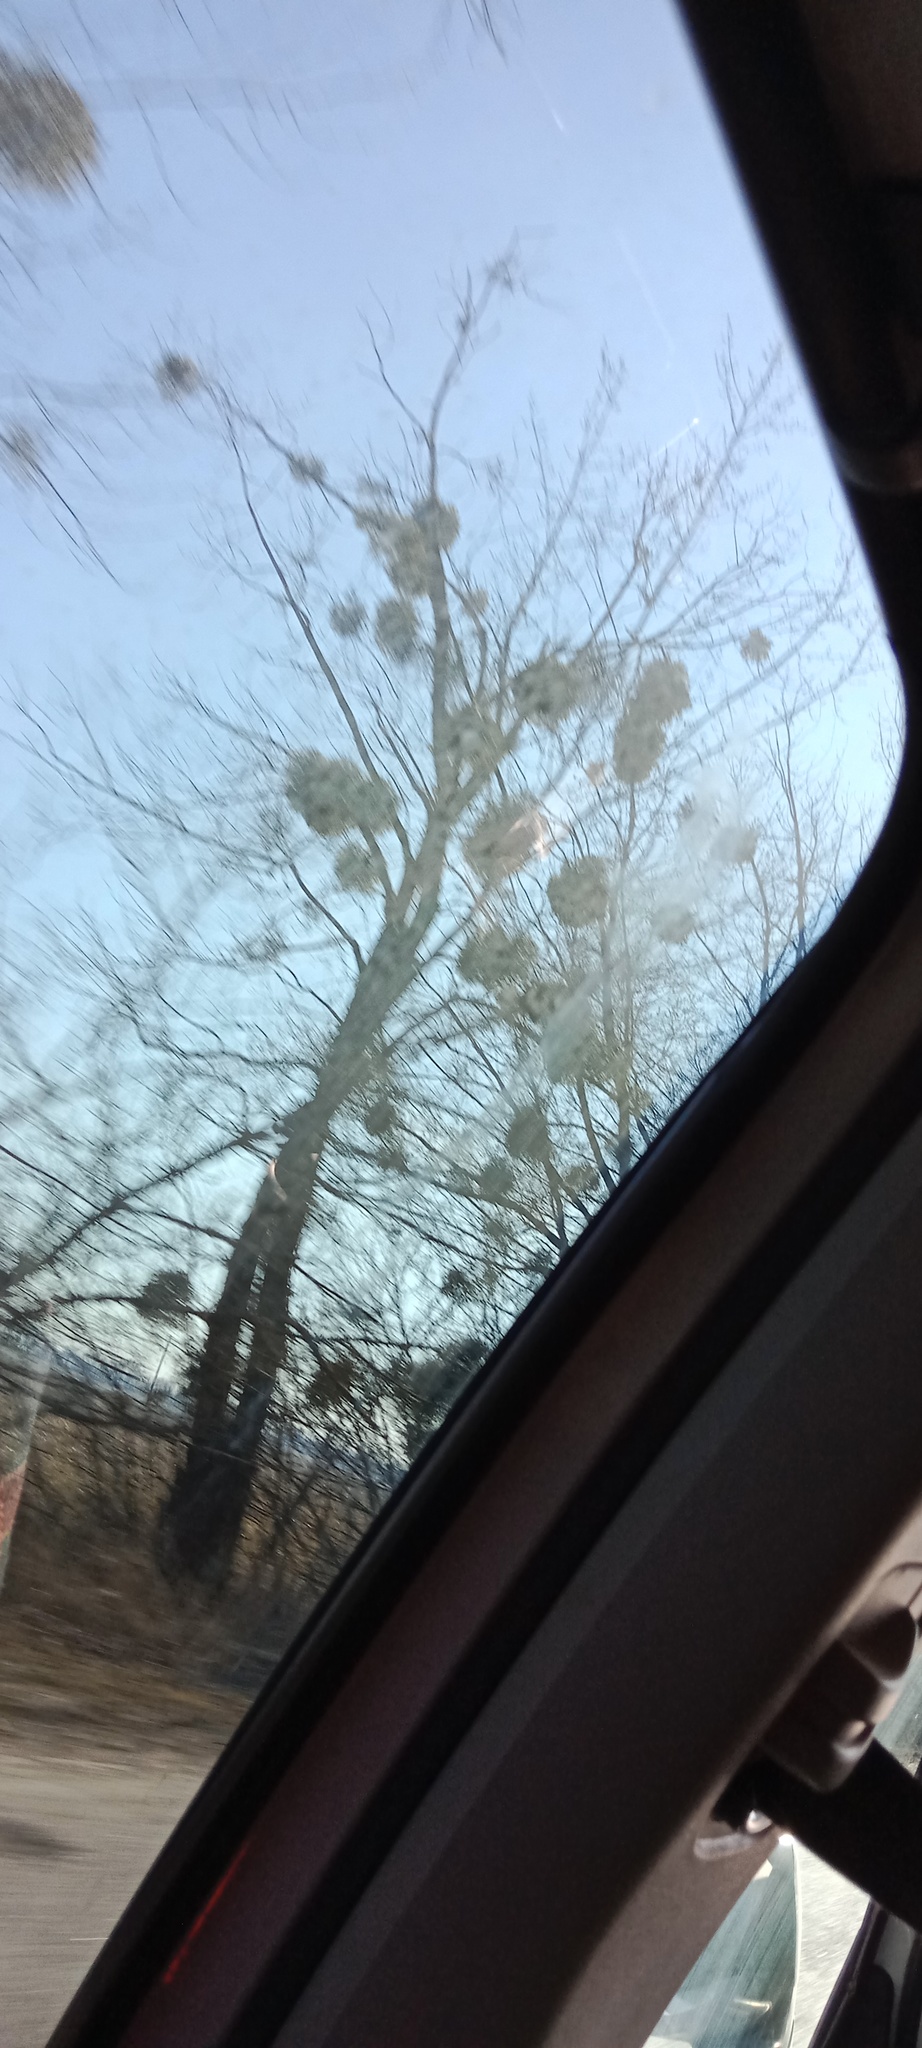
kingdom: Plantae
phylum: Tracheophyta
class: Magnoliopsida
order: Santalales
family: Viscaceae
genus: Viscum
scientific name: Viscum album
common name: Mistletoe
